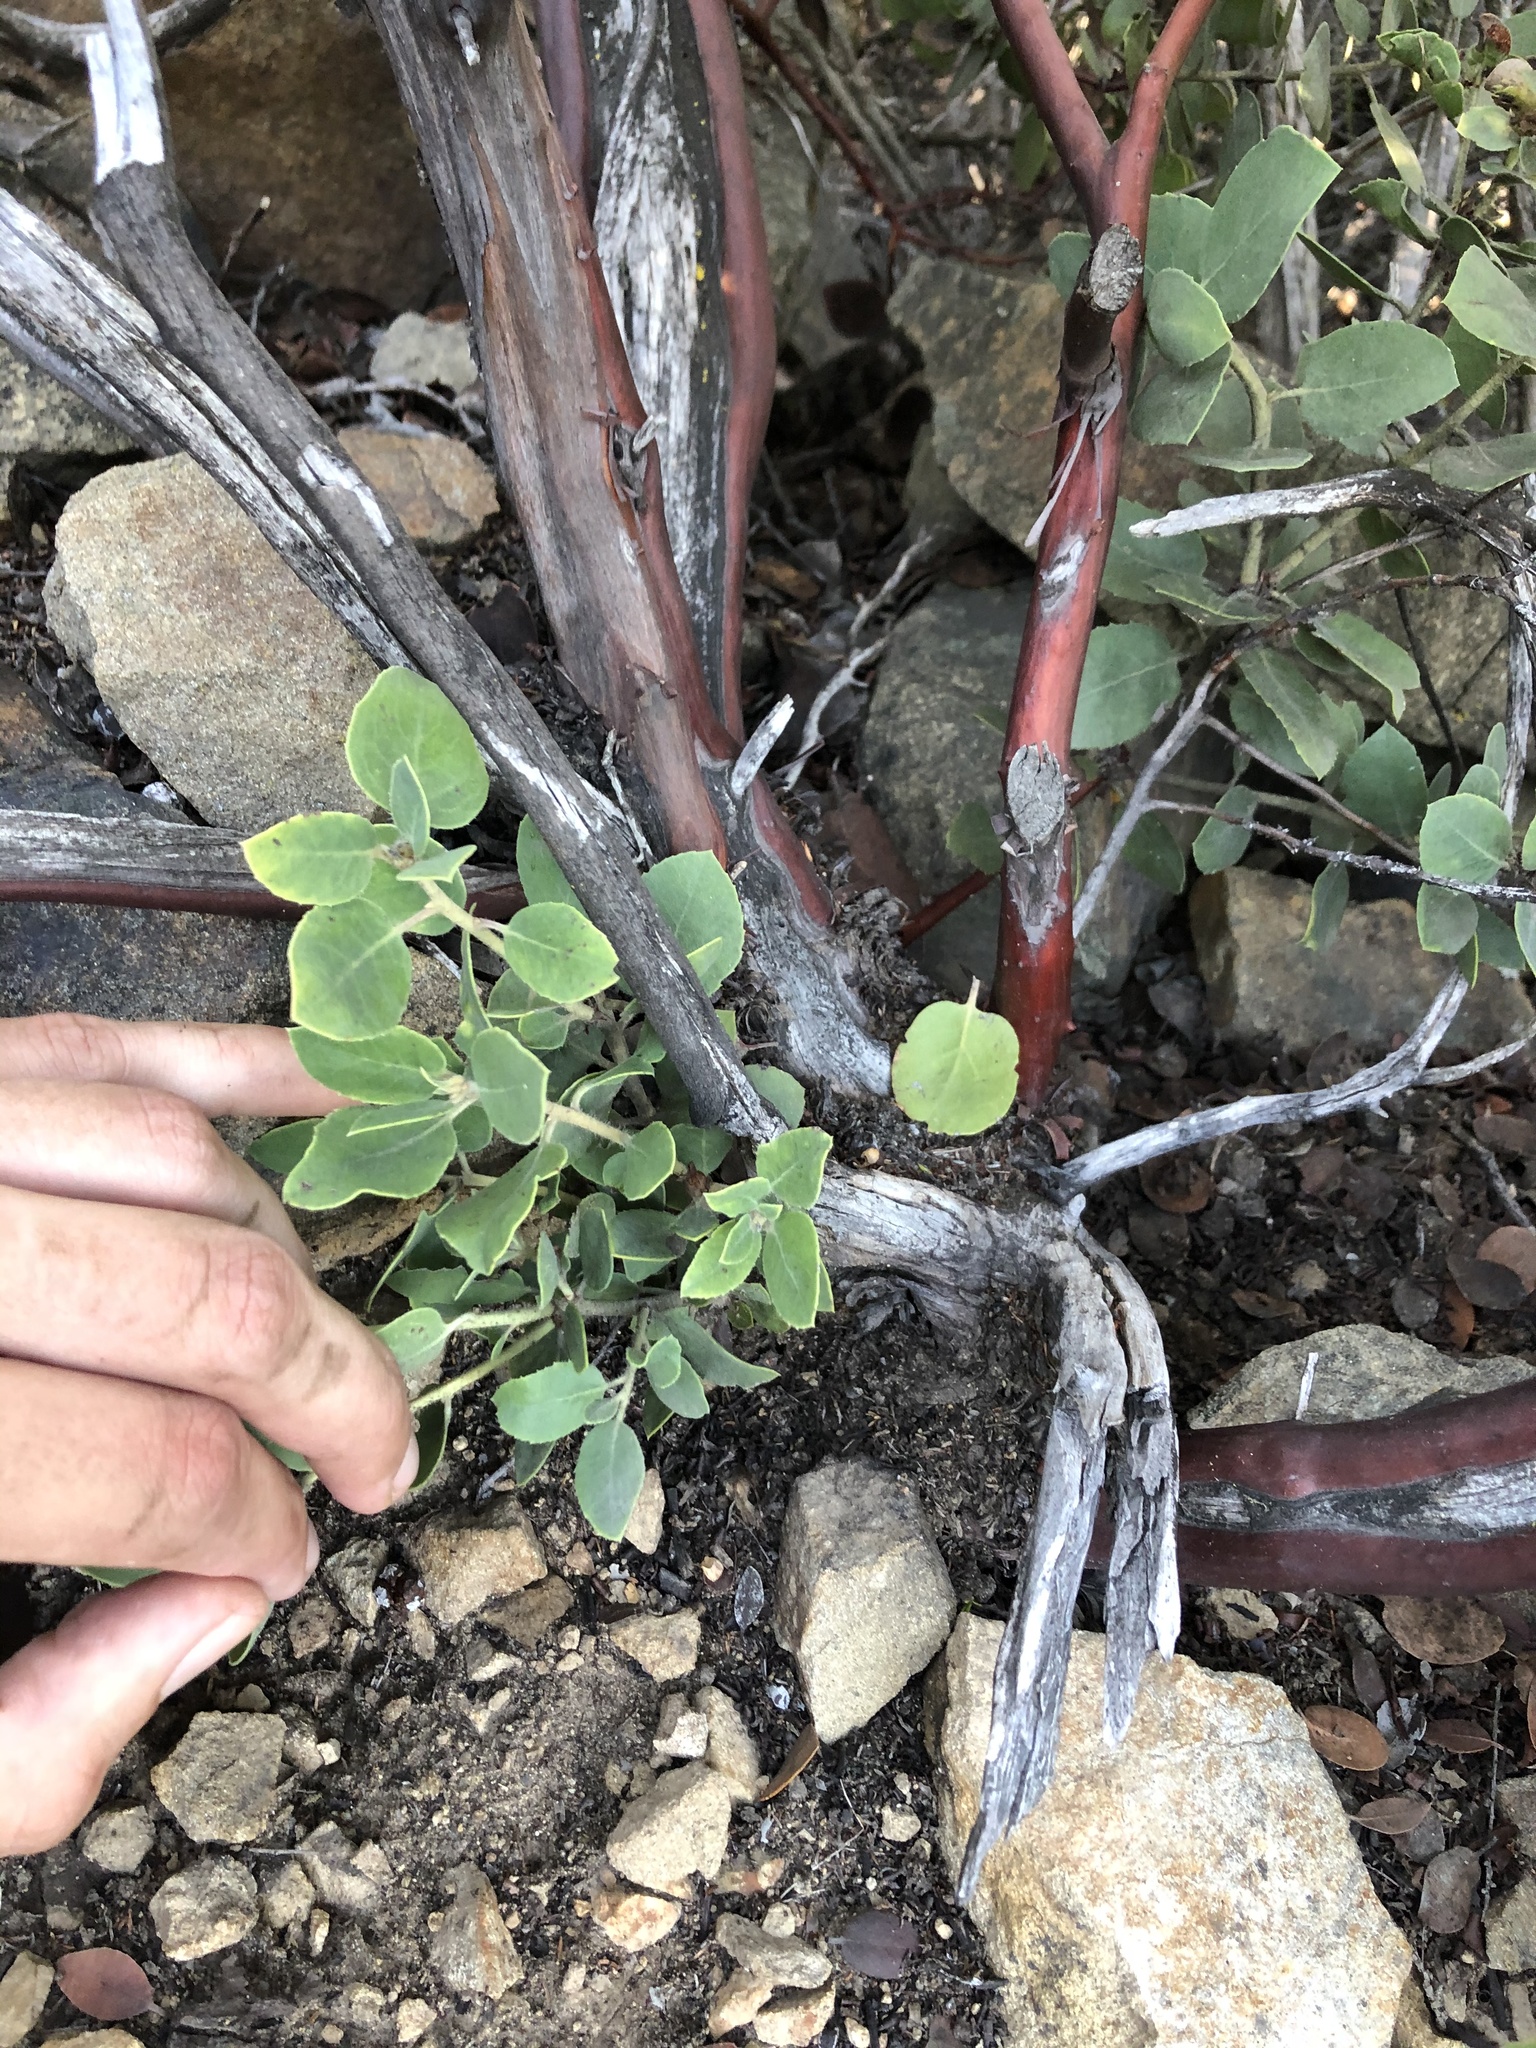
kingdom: Plantae
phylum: Tracheophyta
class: Magnoliopsida
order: Ericales
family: Ericaceae
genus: Arctostaphylos
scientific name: Arctostaphylos glandulosa
